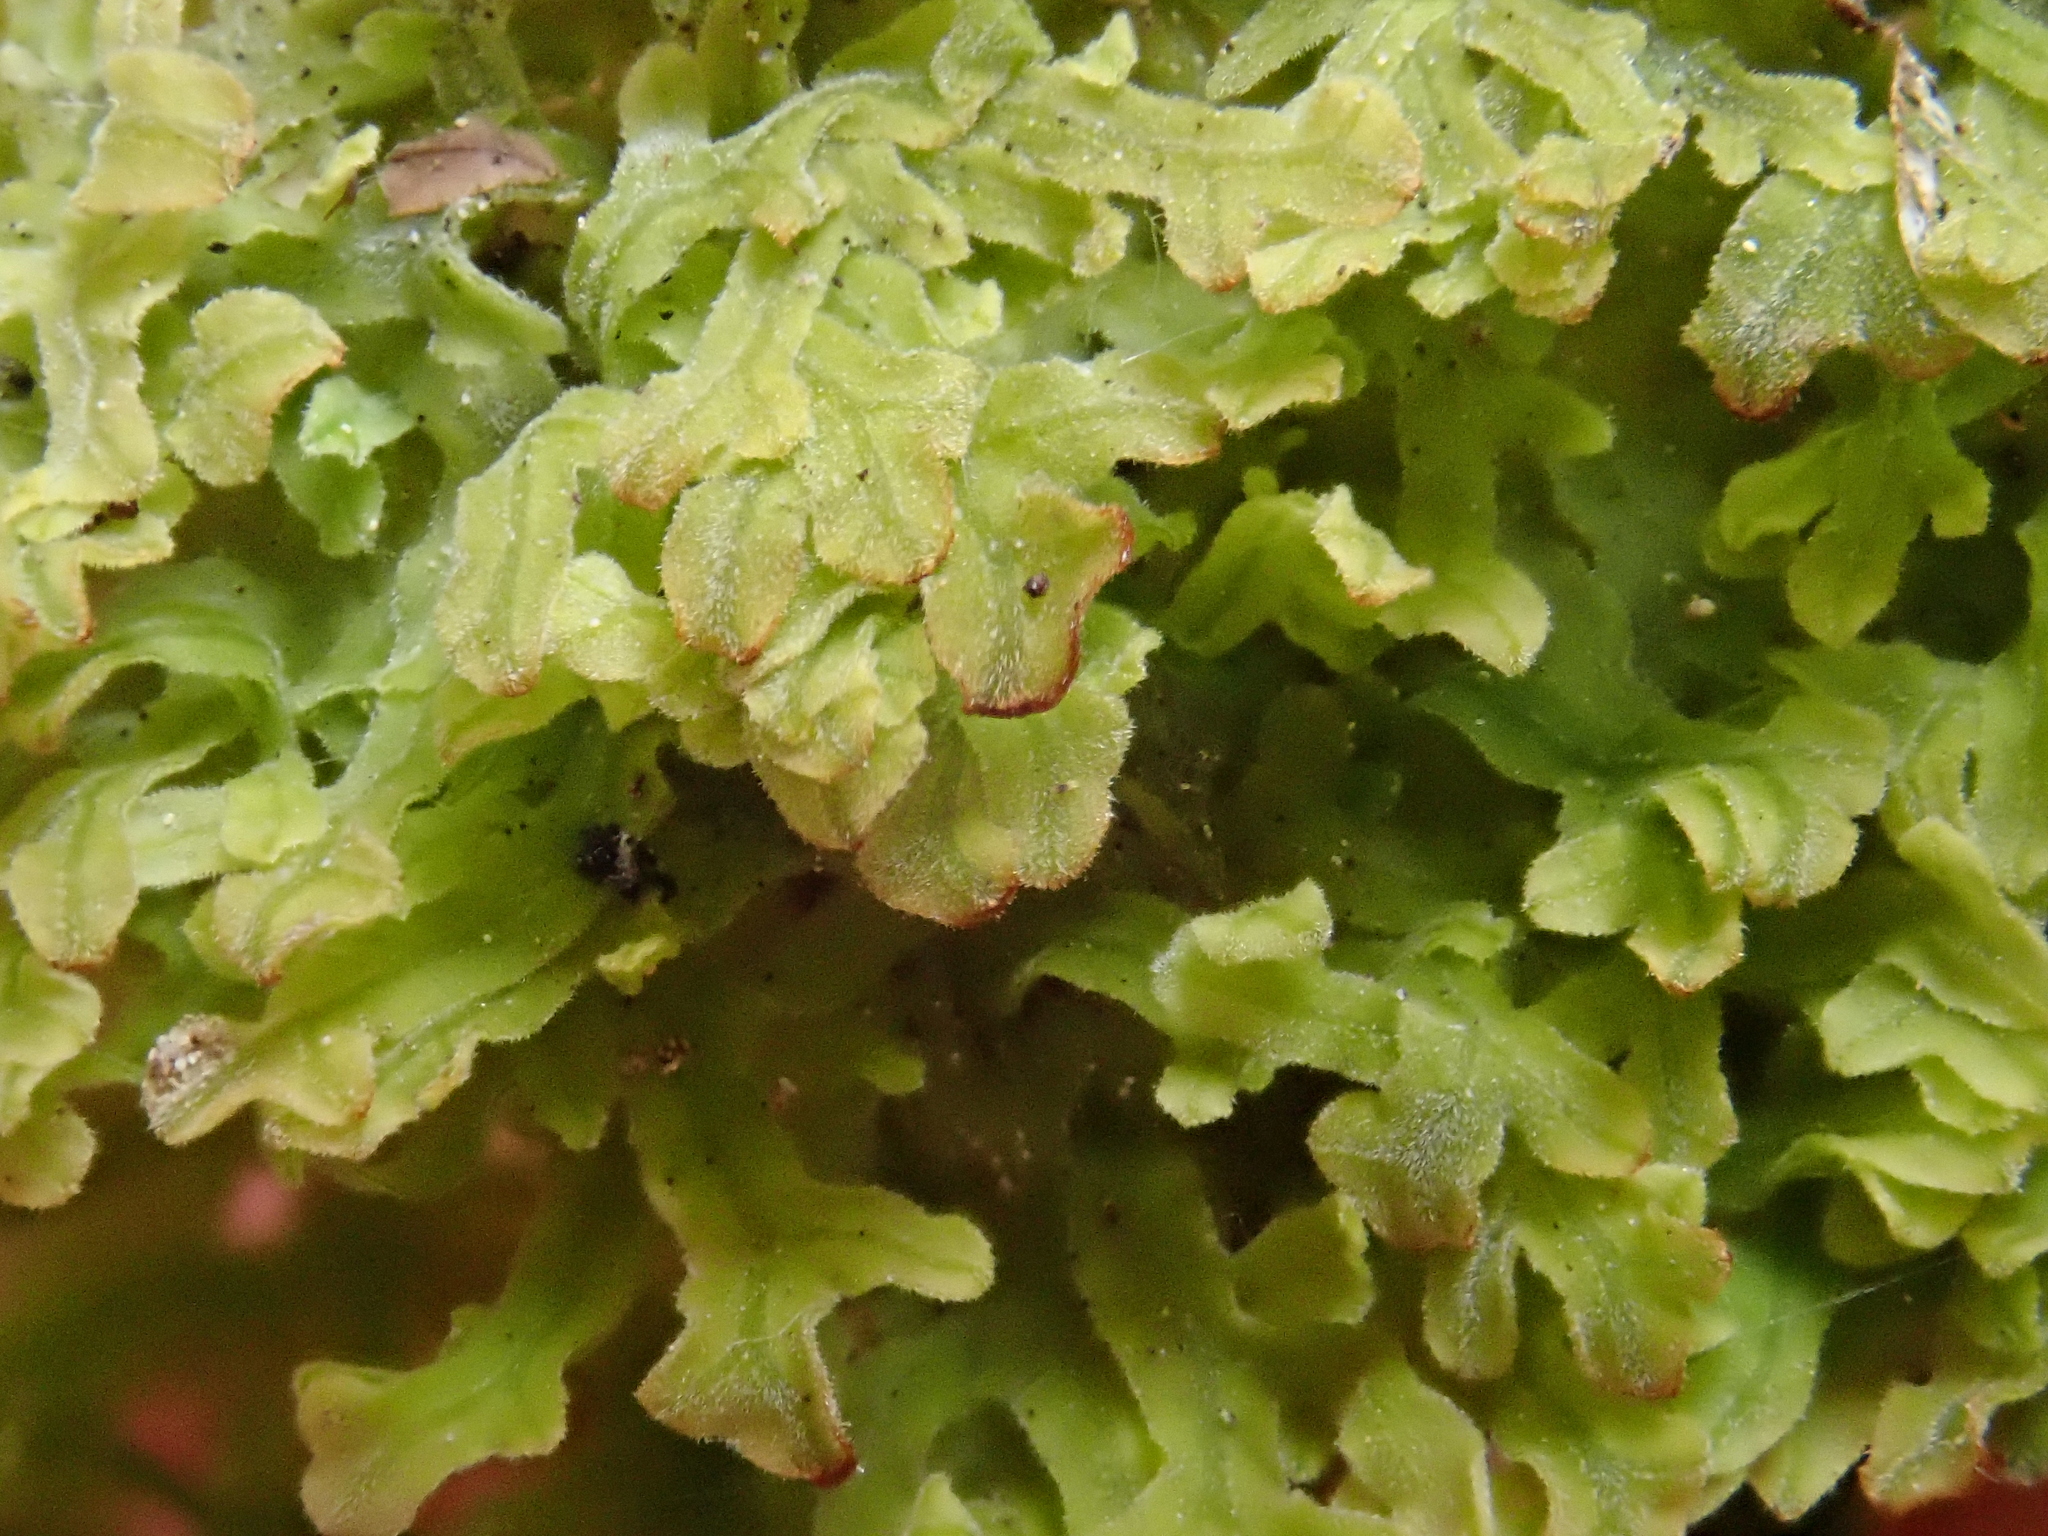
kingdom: Plantae
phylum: Marchantiophyta
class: Jungermanniopsida
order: Metzgeriales
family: Metzgeriaceae
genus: Metzgeria
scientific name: Metzgeria pubescens
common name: Downy veilwort
